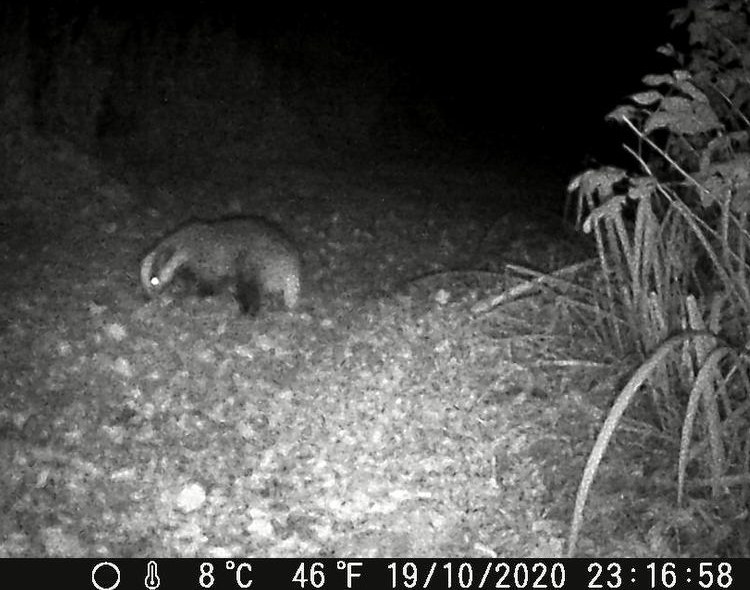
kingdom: Animalia
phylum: Chordata
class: Mammalia
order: Carnivora
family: Mustelidae
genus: Meles
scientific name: Meles meles
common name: Eurasian badger
